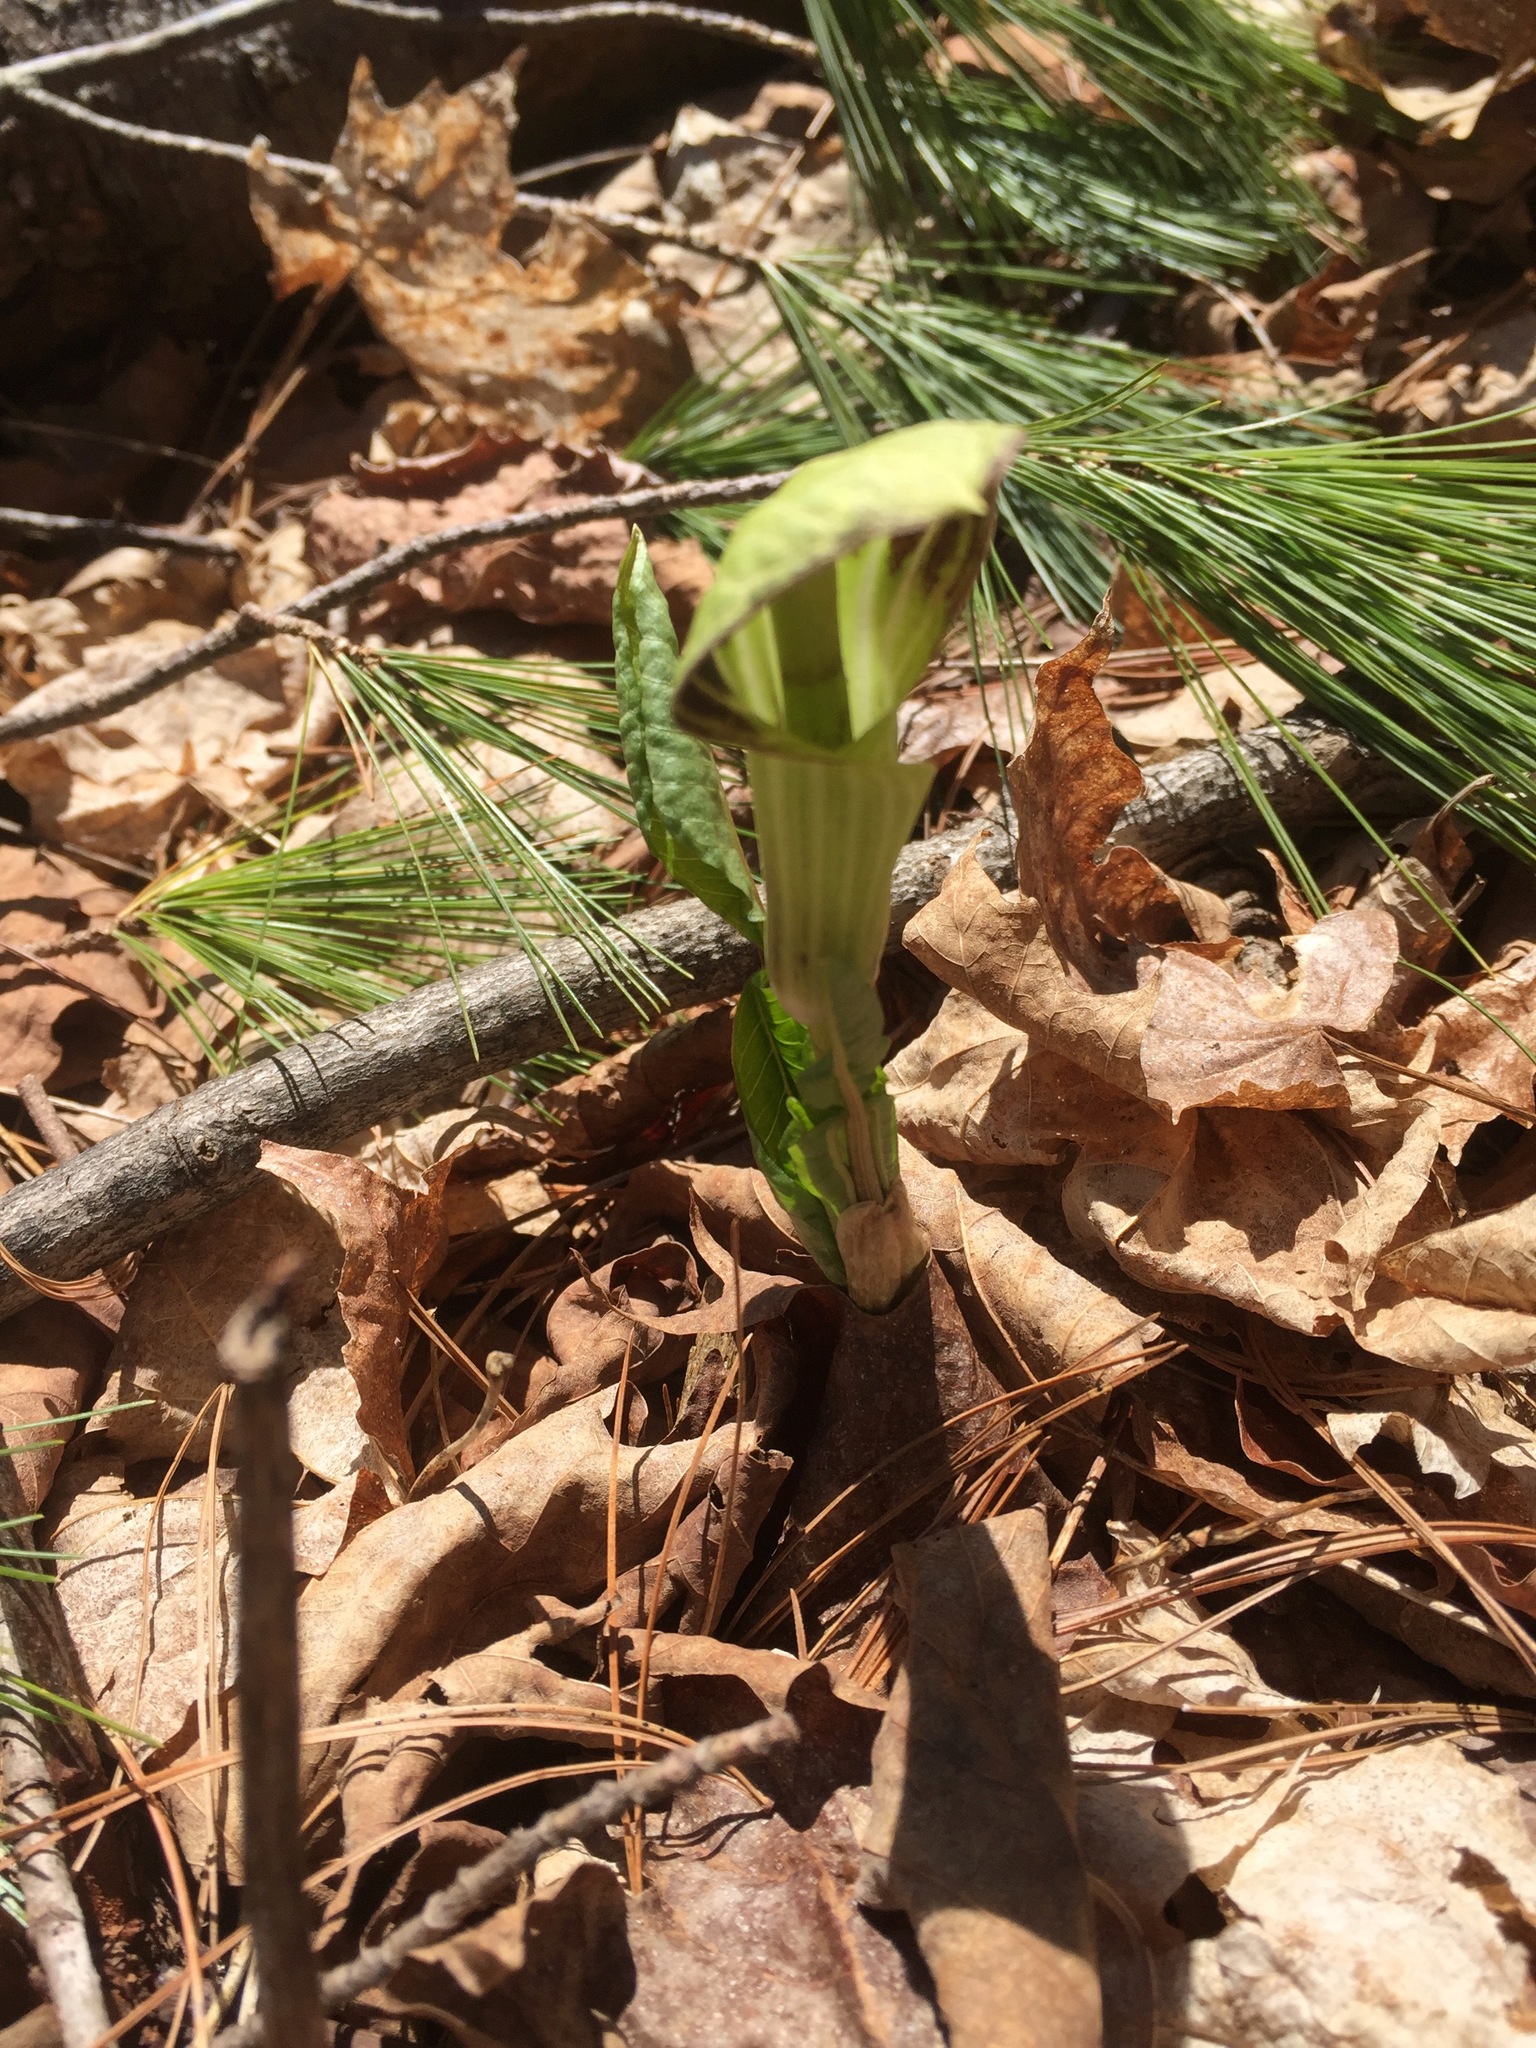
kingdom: Plantae
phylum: Tracheophyta
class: Liliopsida
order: Alismatales
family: Araceae
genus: Arisaema
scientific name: Arisaema triphyllum
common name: Jack-in-the-pulpit
